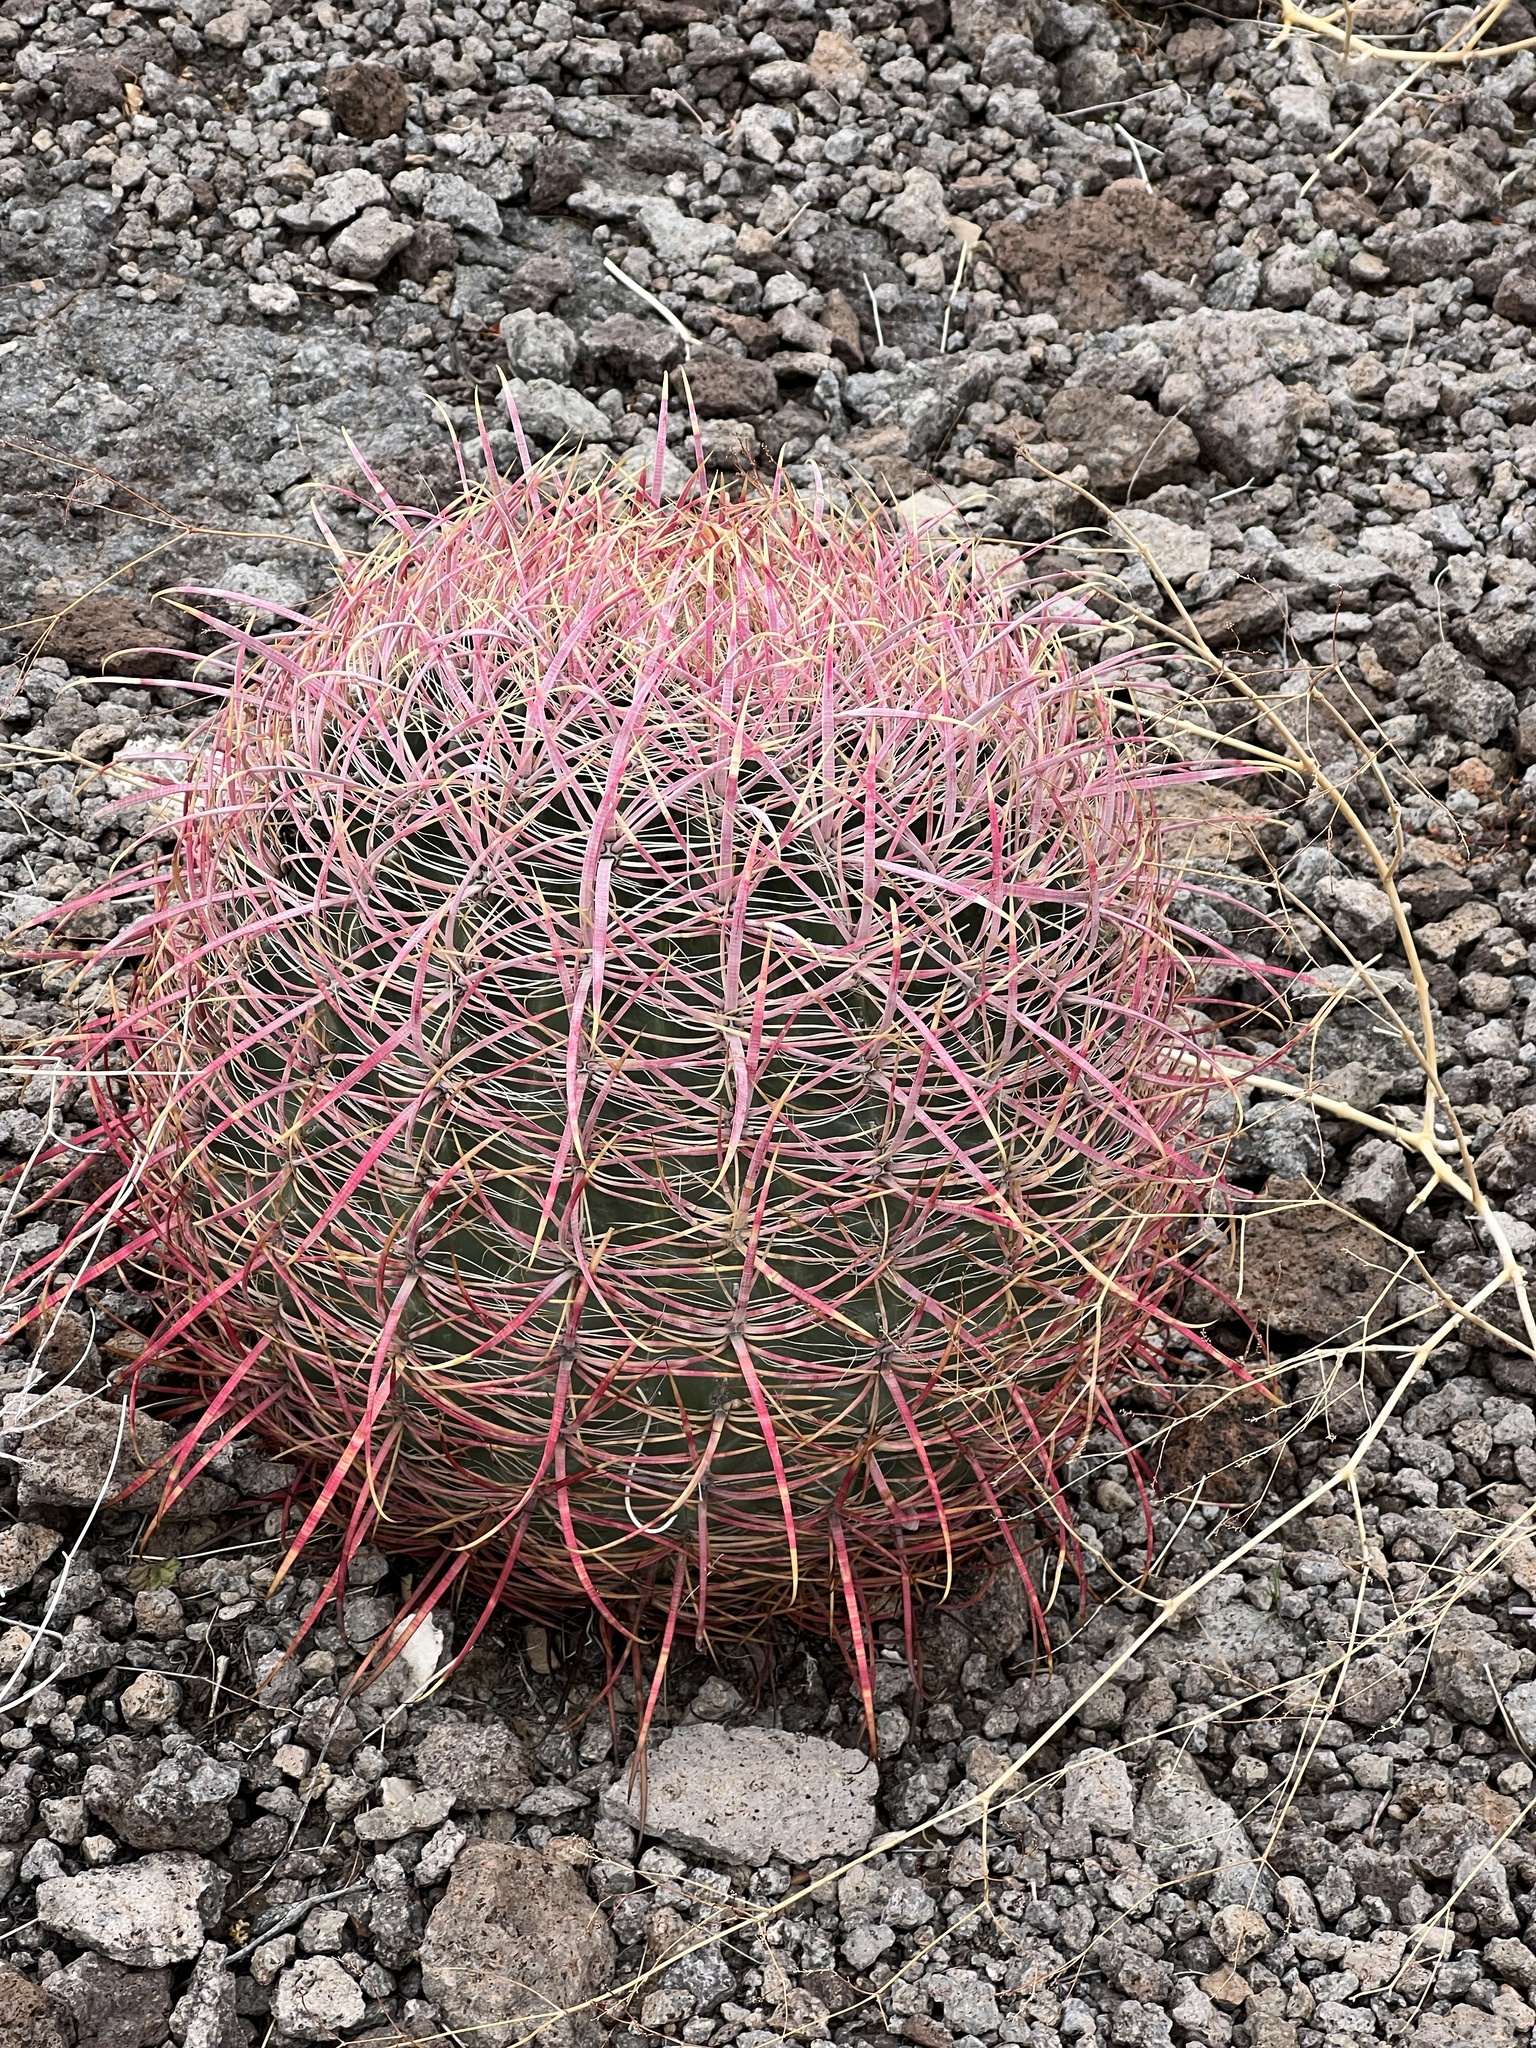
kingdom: Plantae
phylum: Tracheophyta
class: Magnoliopsida
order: Caryophyllales
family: Cactaceae
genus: Ferocactus
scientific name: Ferocactus cylindraceus
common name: California barrel cactus
